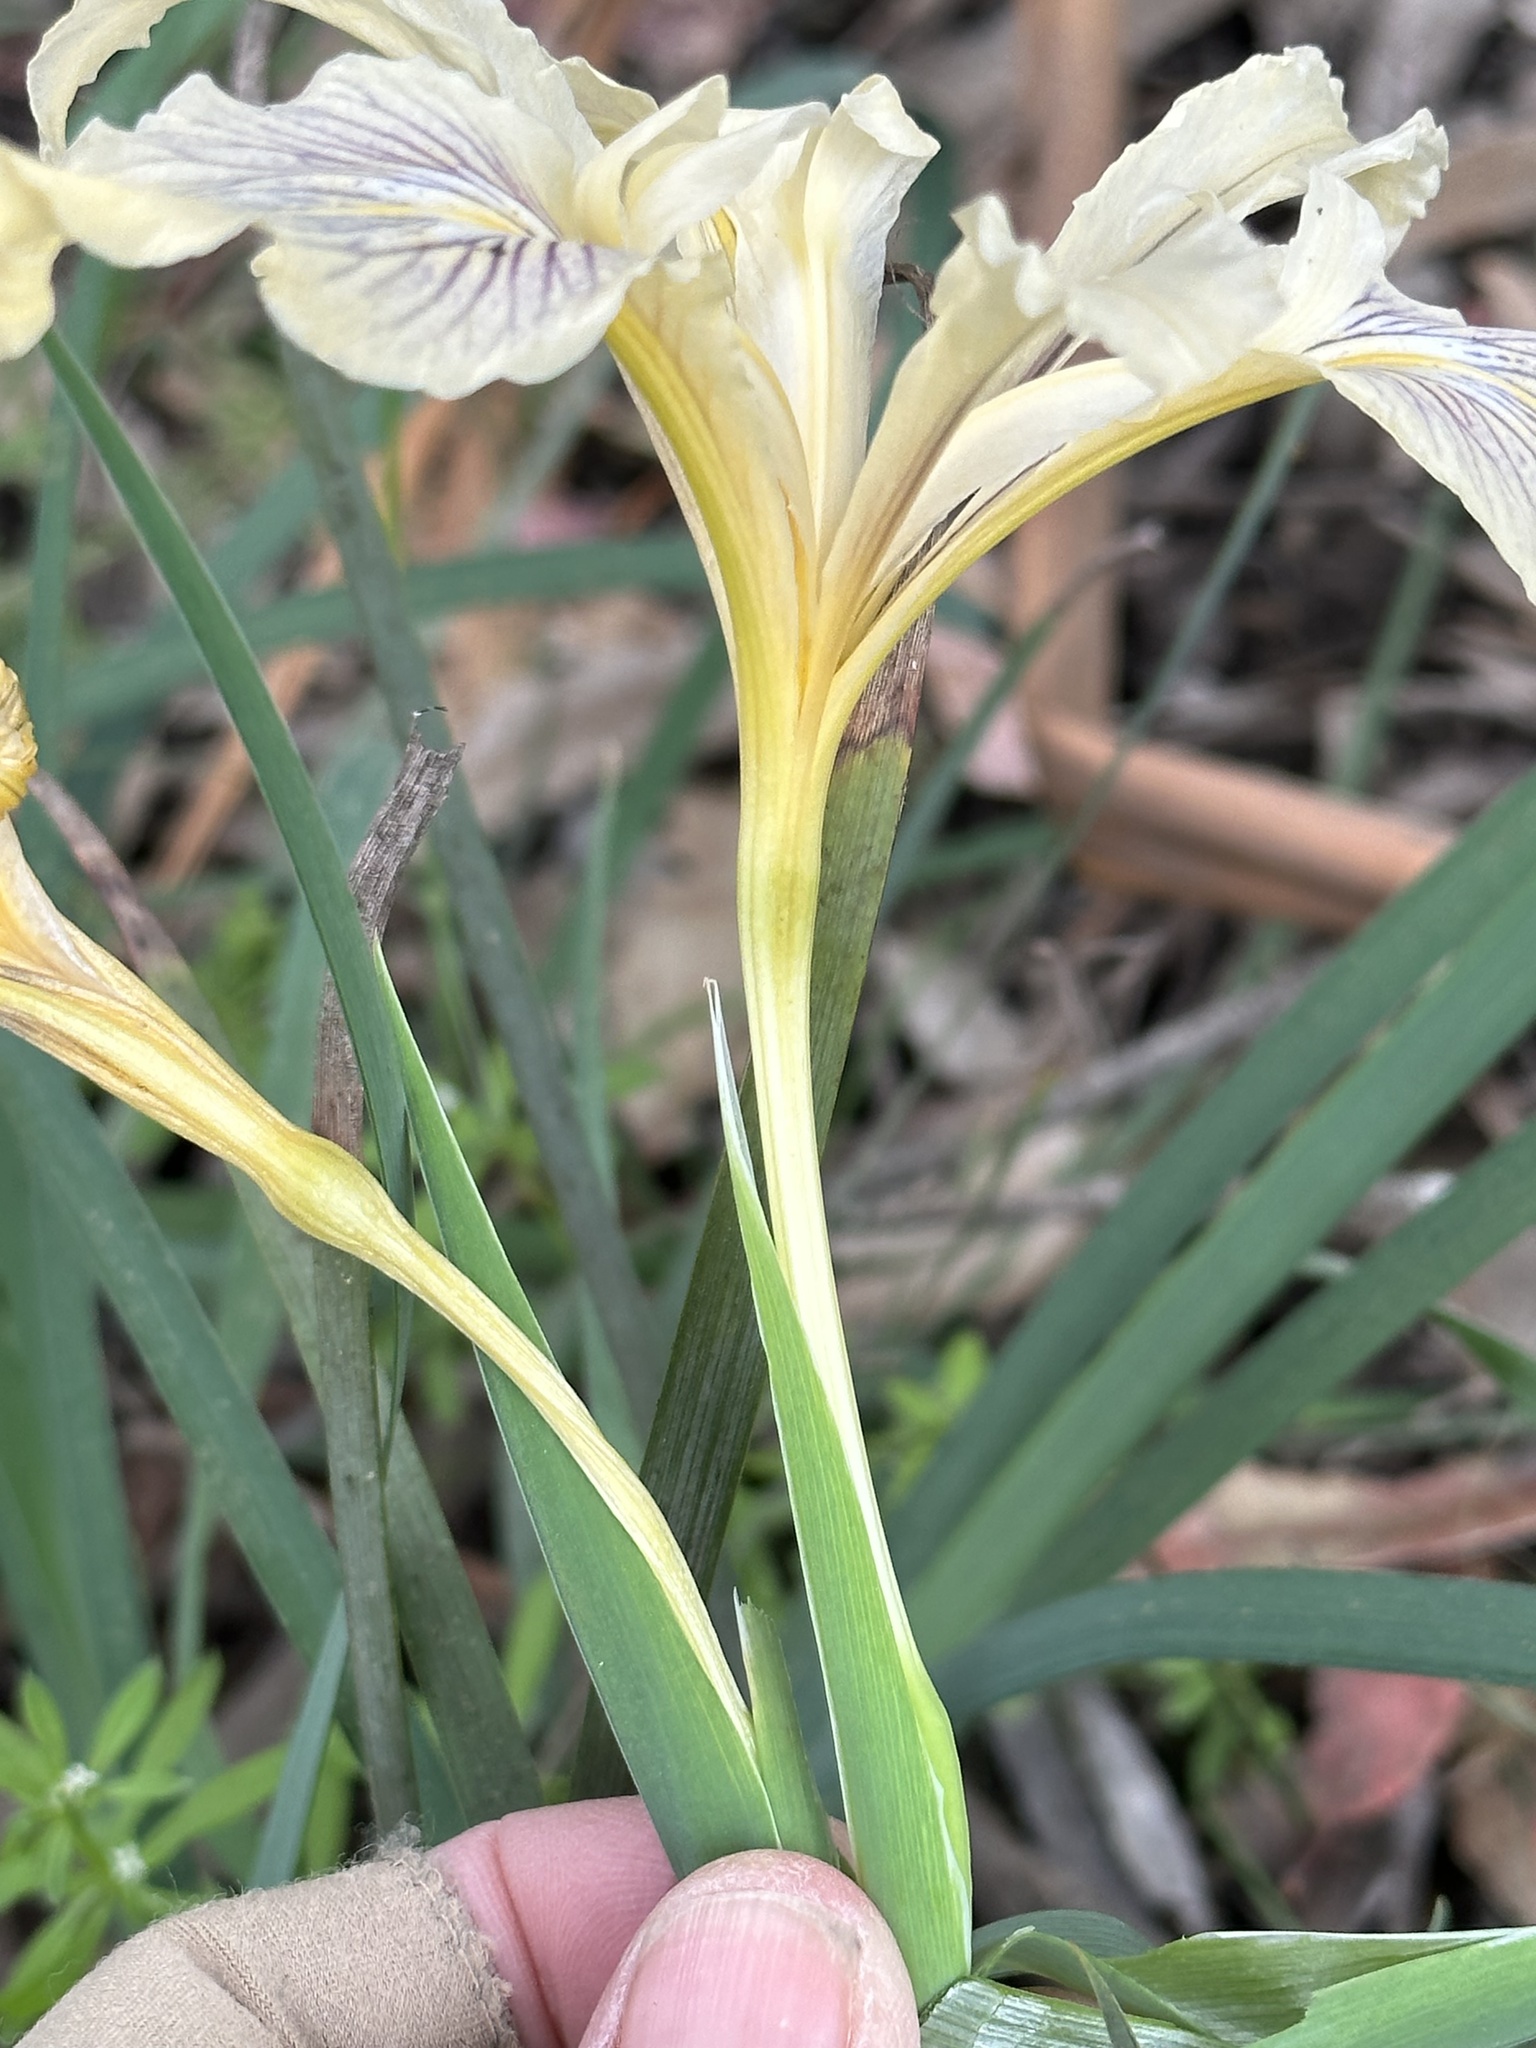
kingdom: Plantae
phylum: Tracheophyta
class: Liliopsida
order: Asparagales
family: Iridaceae
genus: Iris
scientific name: Iris macrosiphon
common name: Ground iris
